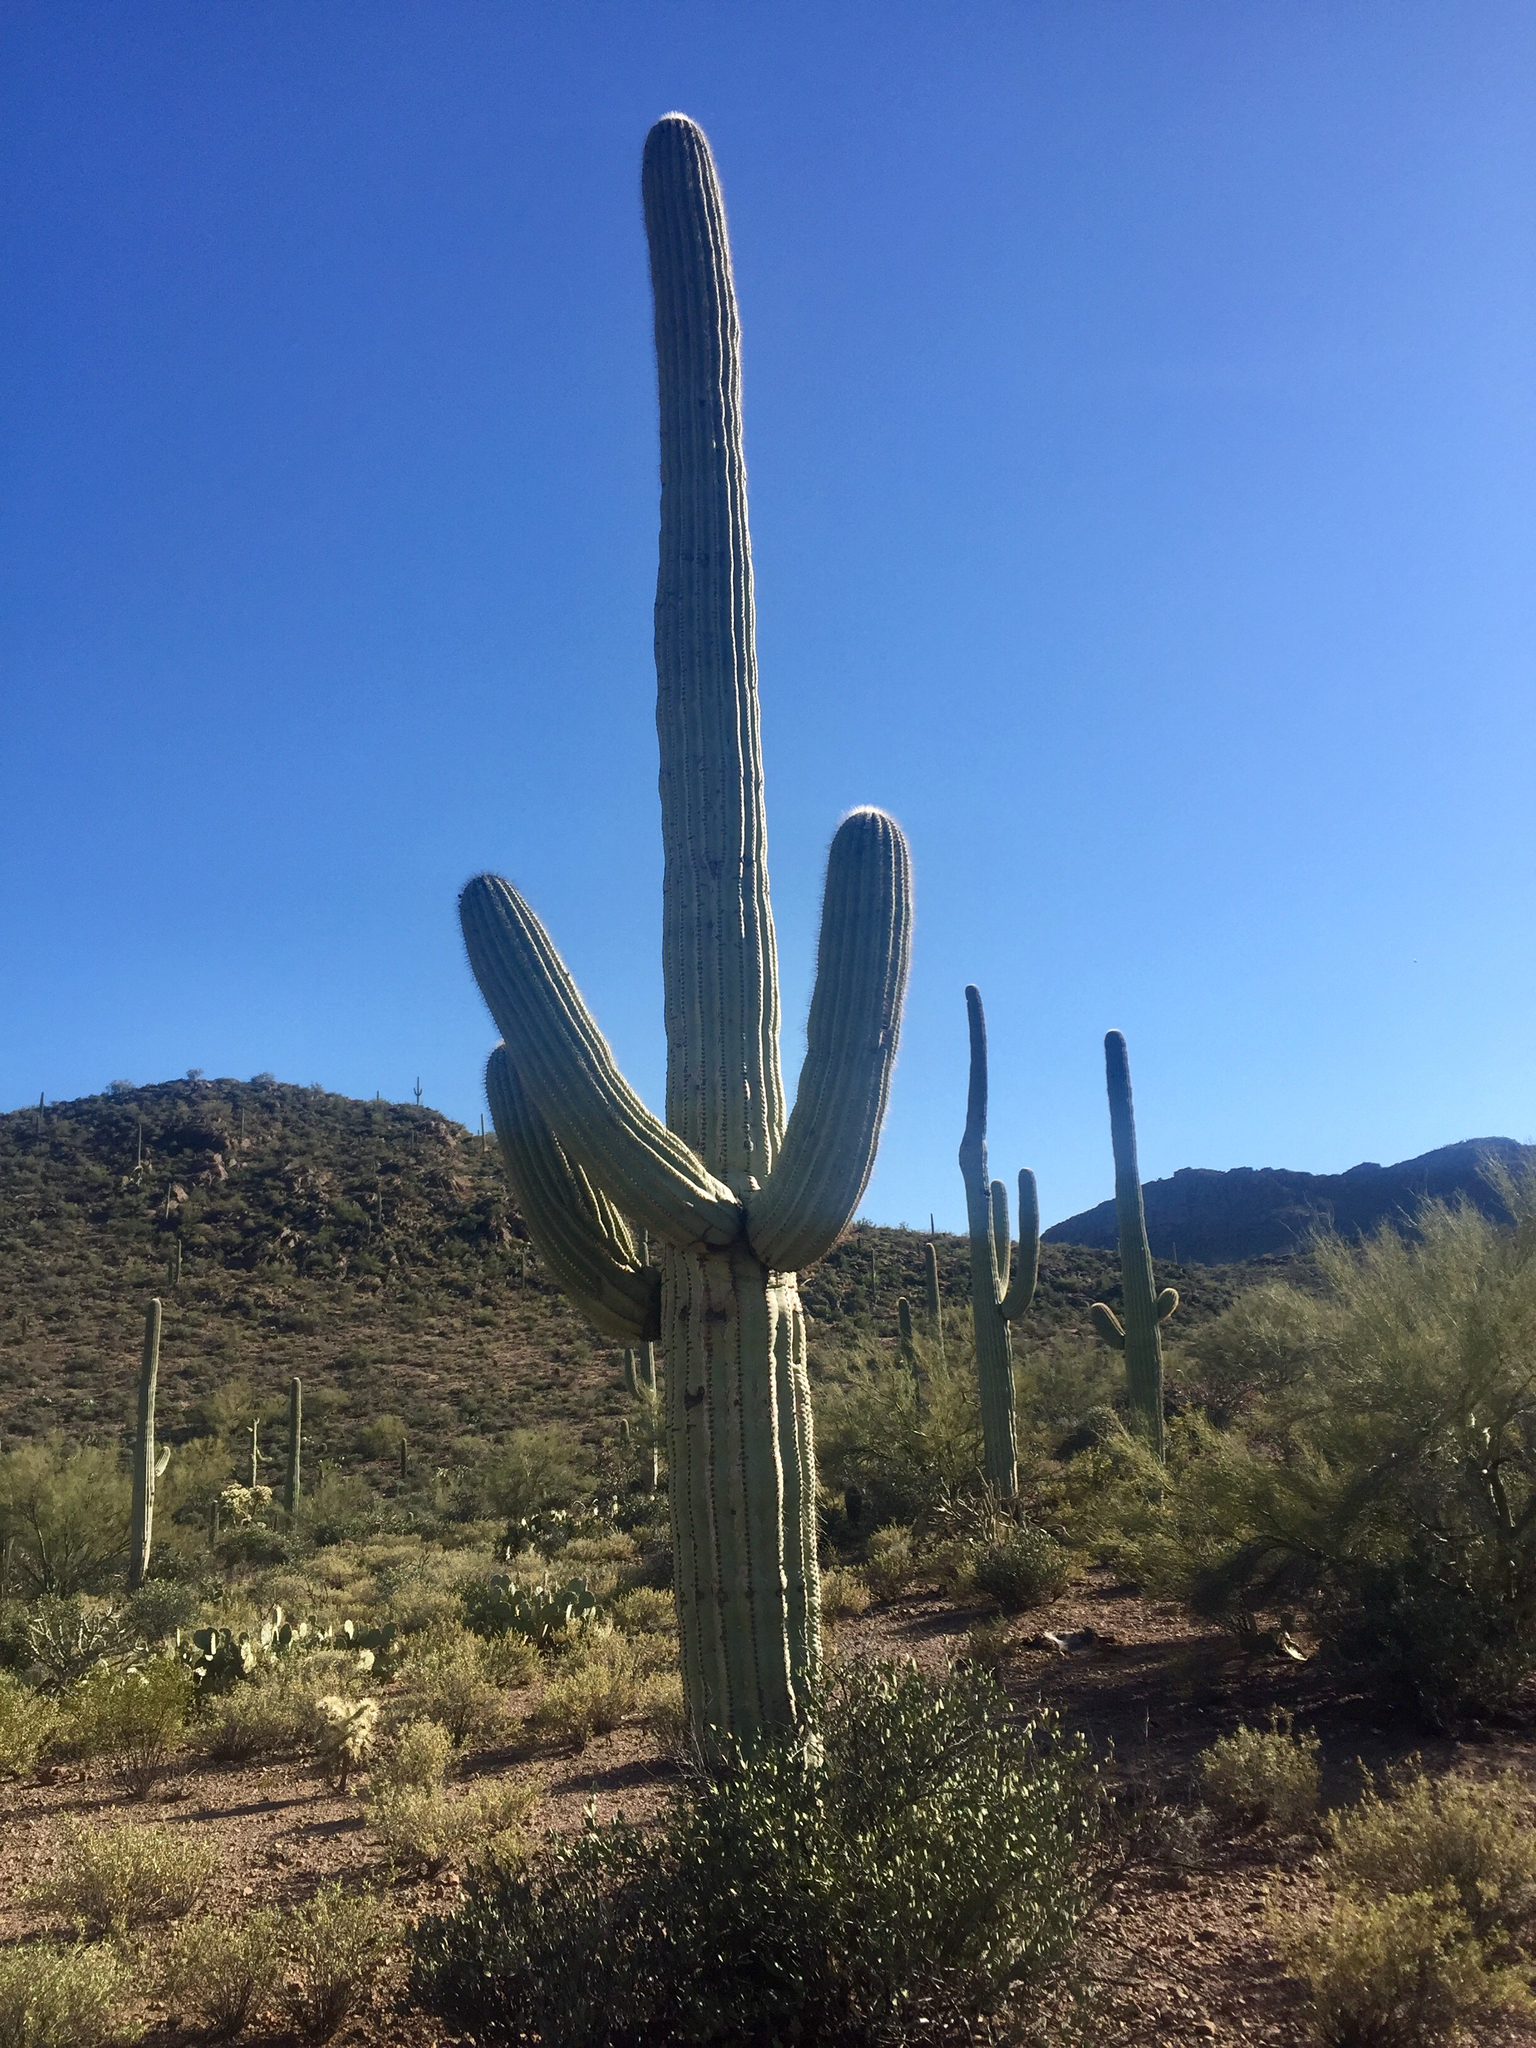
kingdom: Plantae
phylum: Tracheophyta
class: Magnoliopsida
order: Caryophyllales
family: Cactaceae
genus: Carnegiea
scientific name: Carnegiea gigantea
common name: Saguaro
